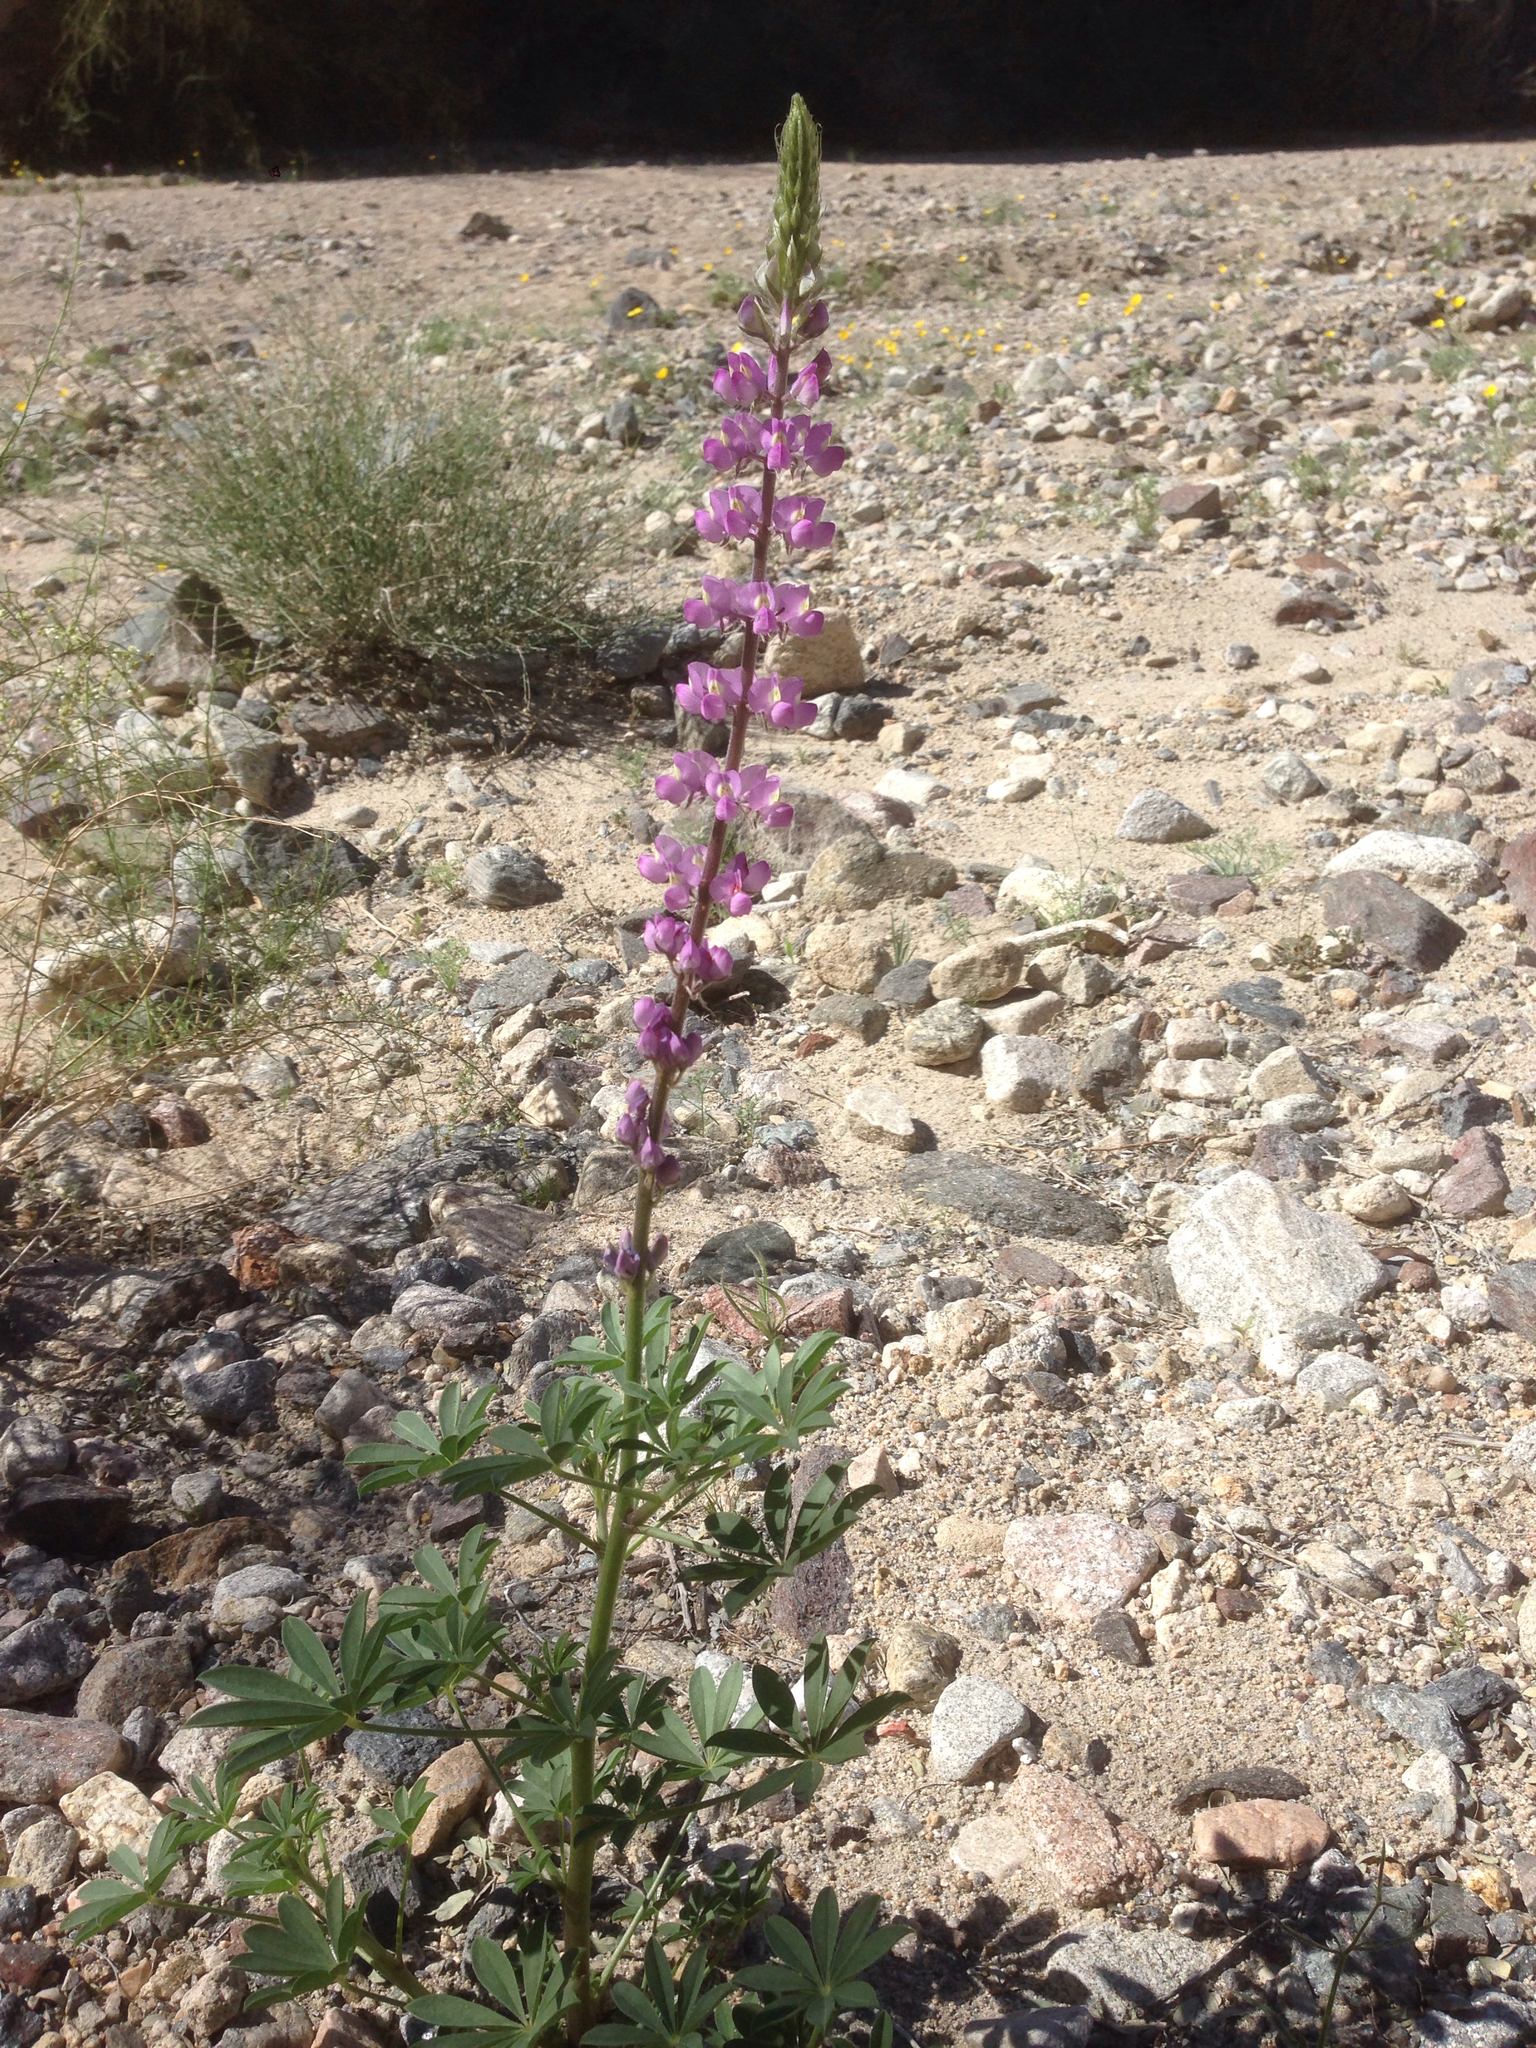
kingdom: Plantae
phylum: Tracheophyta
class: Magnoliopsida
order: Fabales
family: Fabaceae
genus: Lupinus
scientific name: Lupinus arizonicus
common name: Arizona lupine
